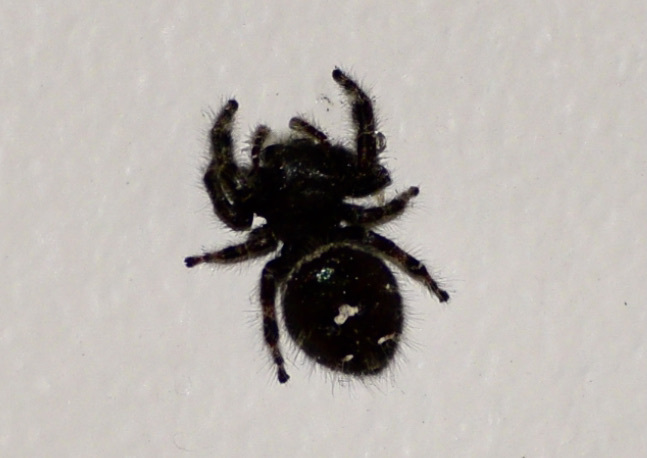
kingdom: Animalia
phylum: Arthropoda
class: Arachnida
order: Araneae
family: Salticidae
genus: Phidippus
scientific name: Phidippus audax
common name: Bold jumper
